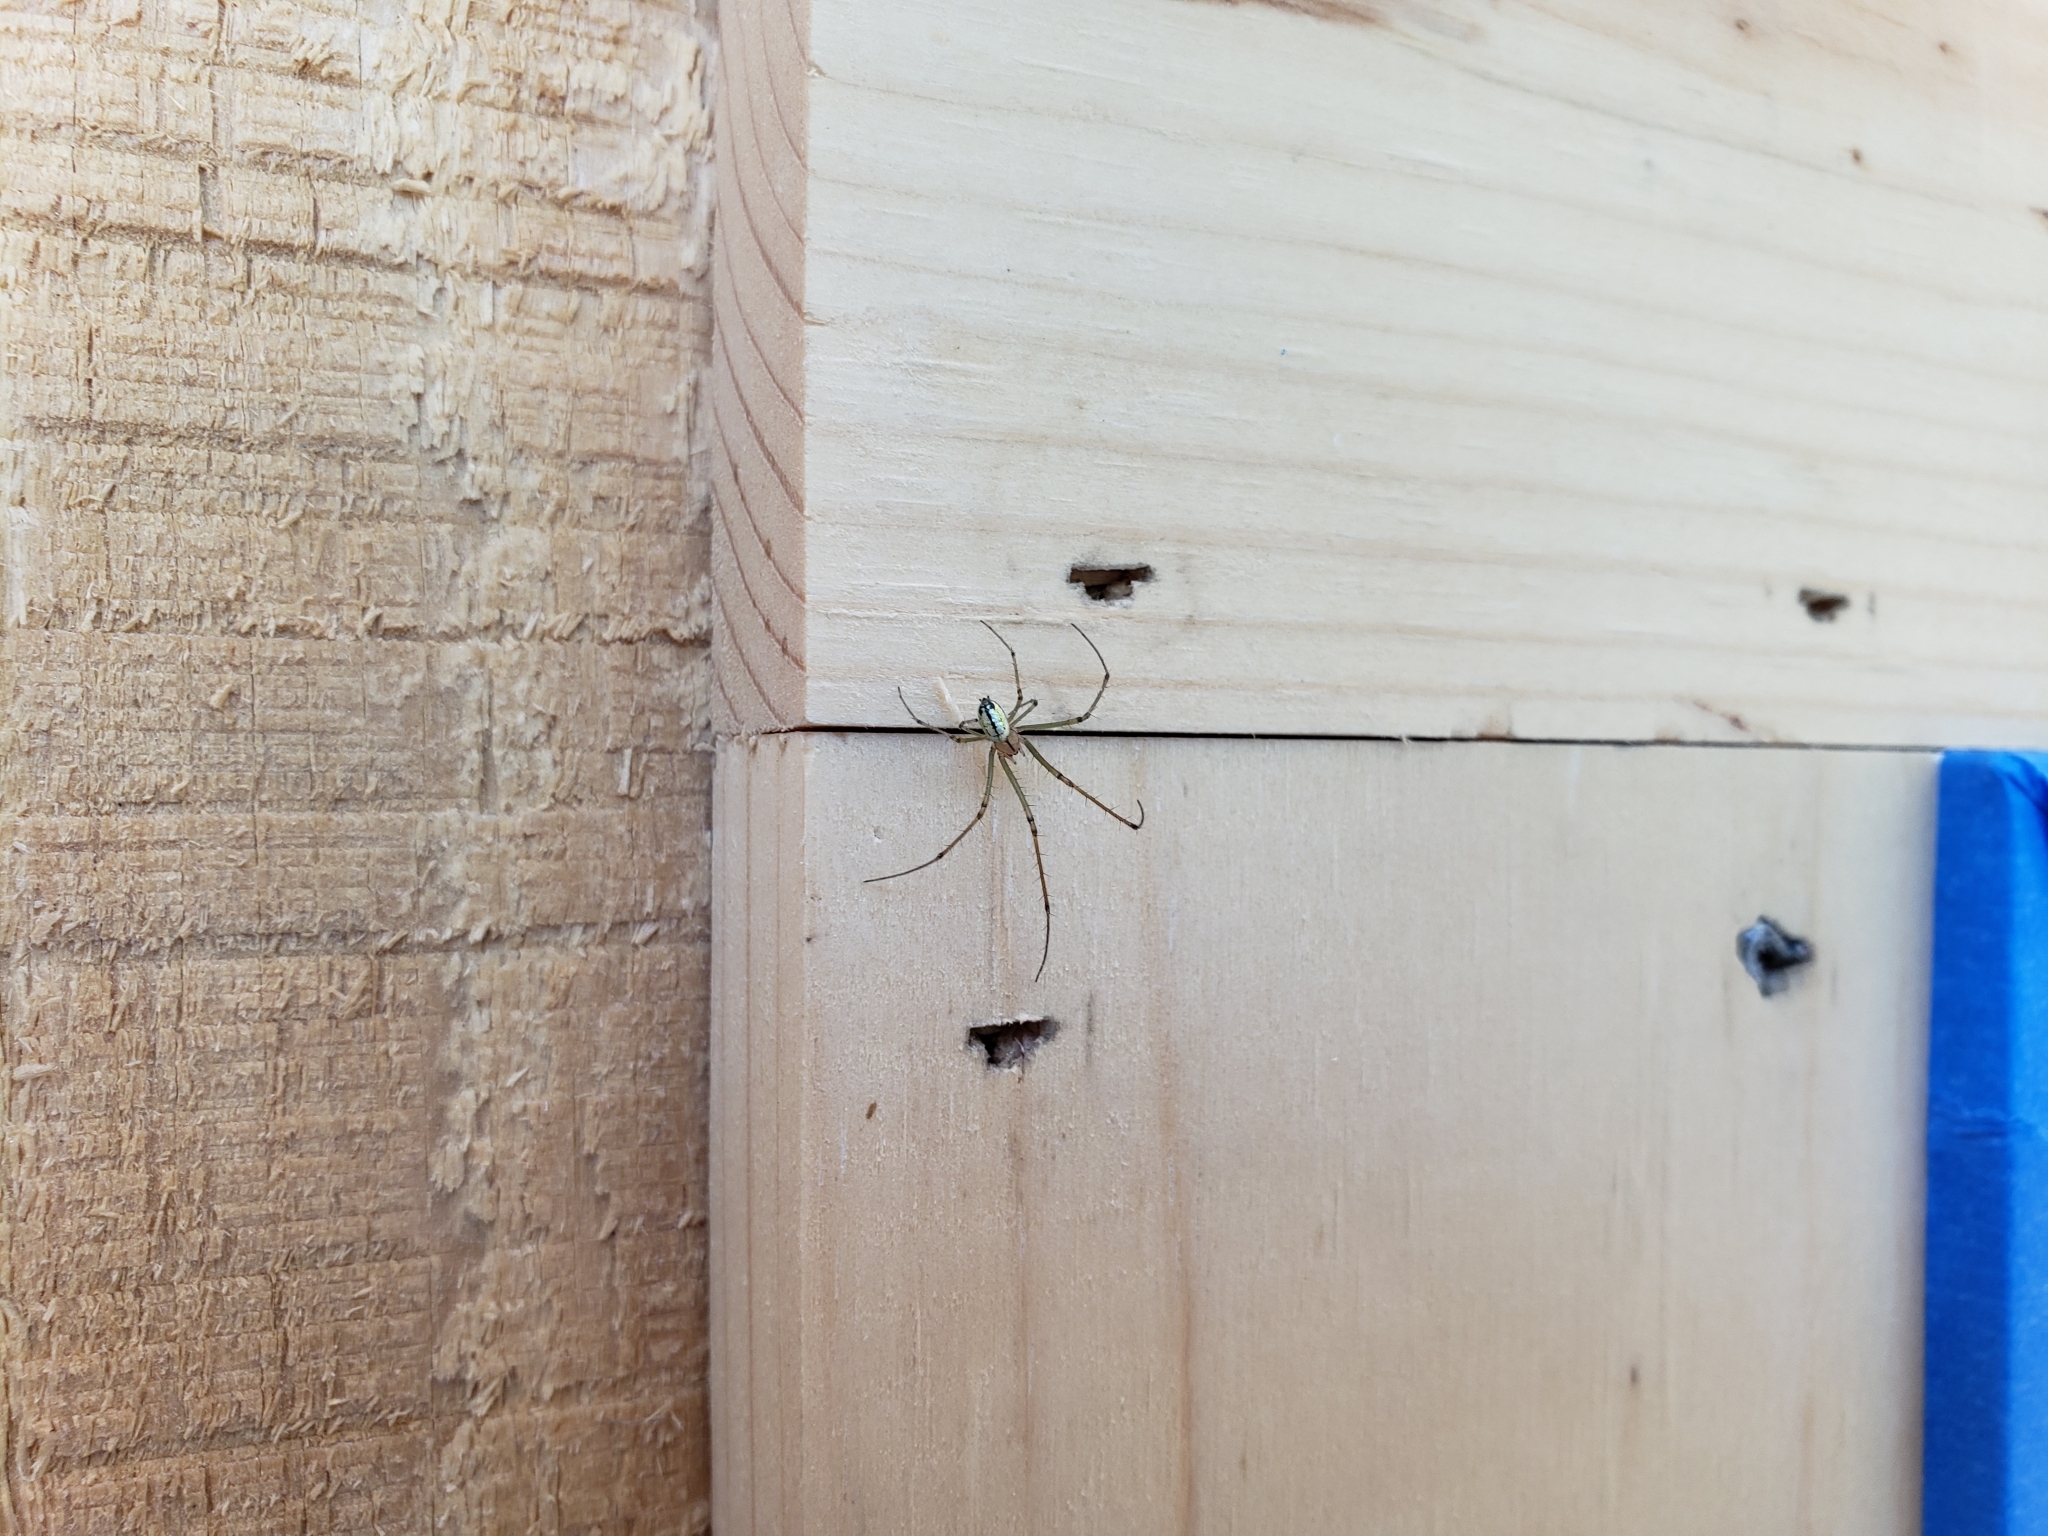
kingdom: Animalia
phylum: Arthropoda
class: Arachnida
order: Araneae
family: Tetragnathidae
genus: Leucauge
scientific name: Leucauge venusta
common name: Longjawed orb weavers
